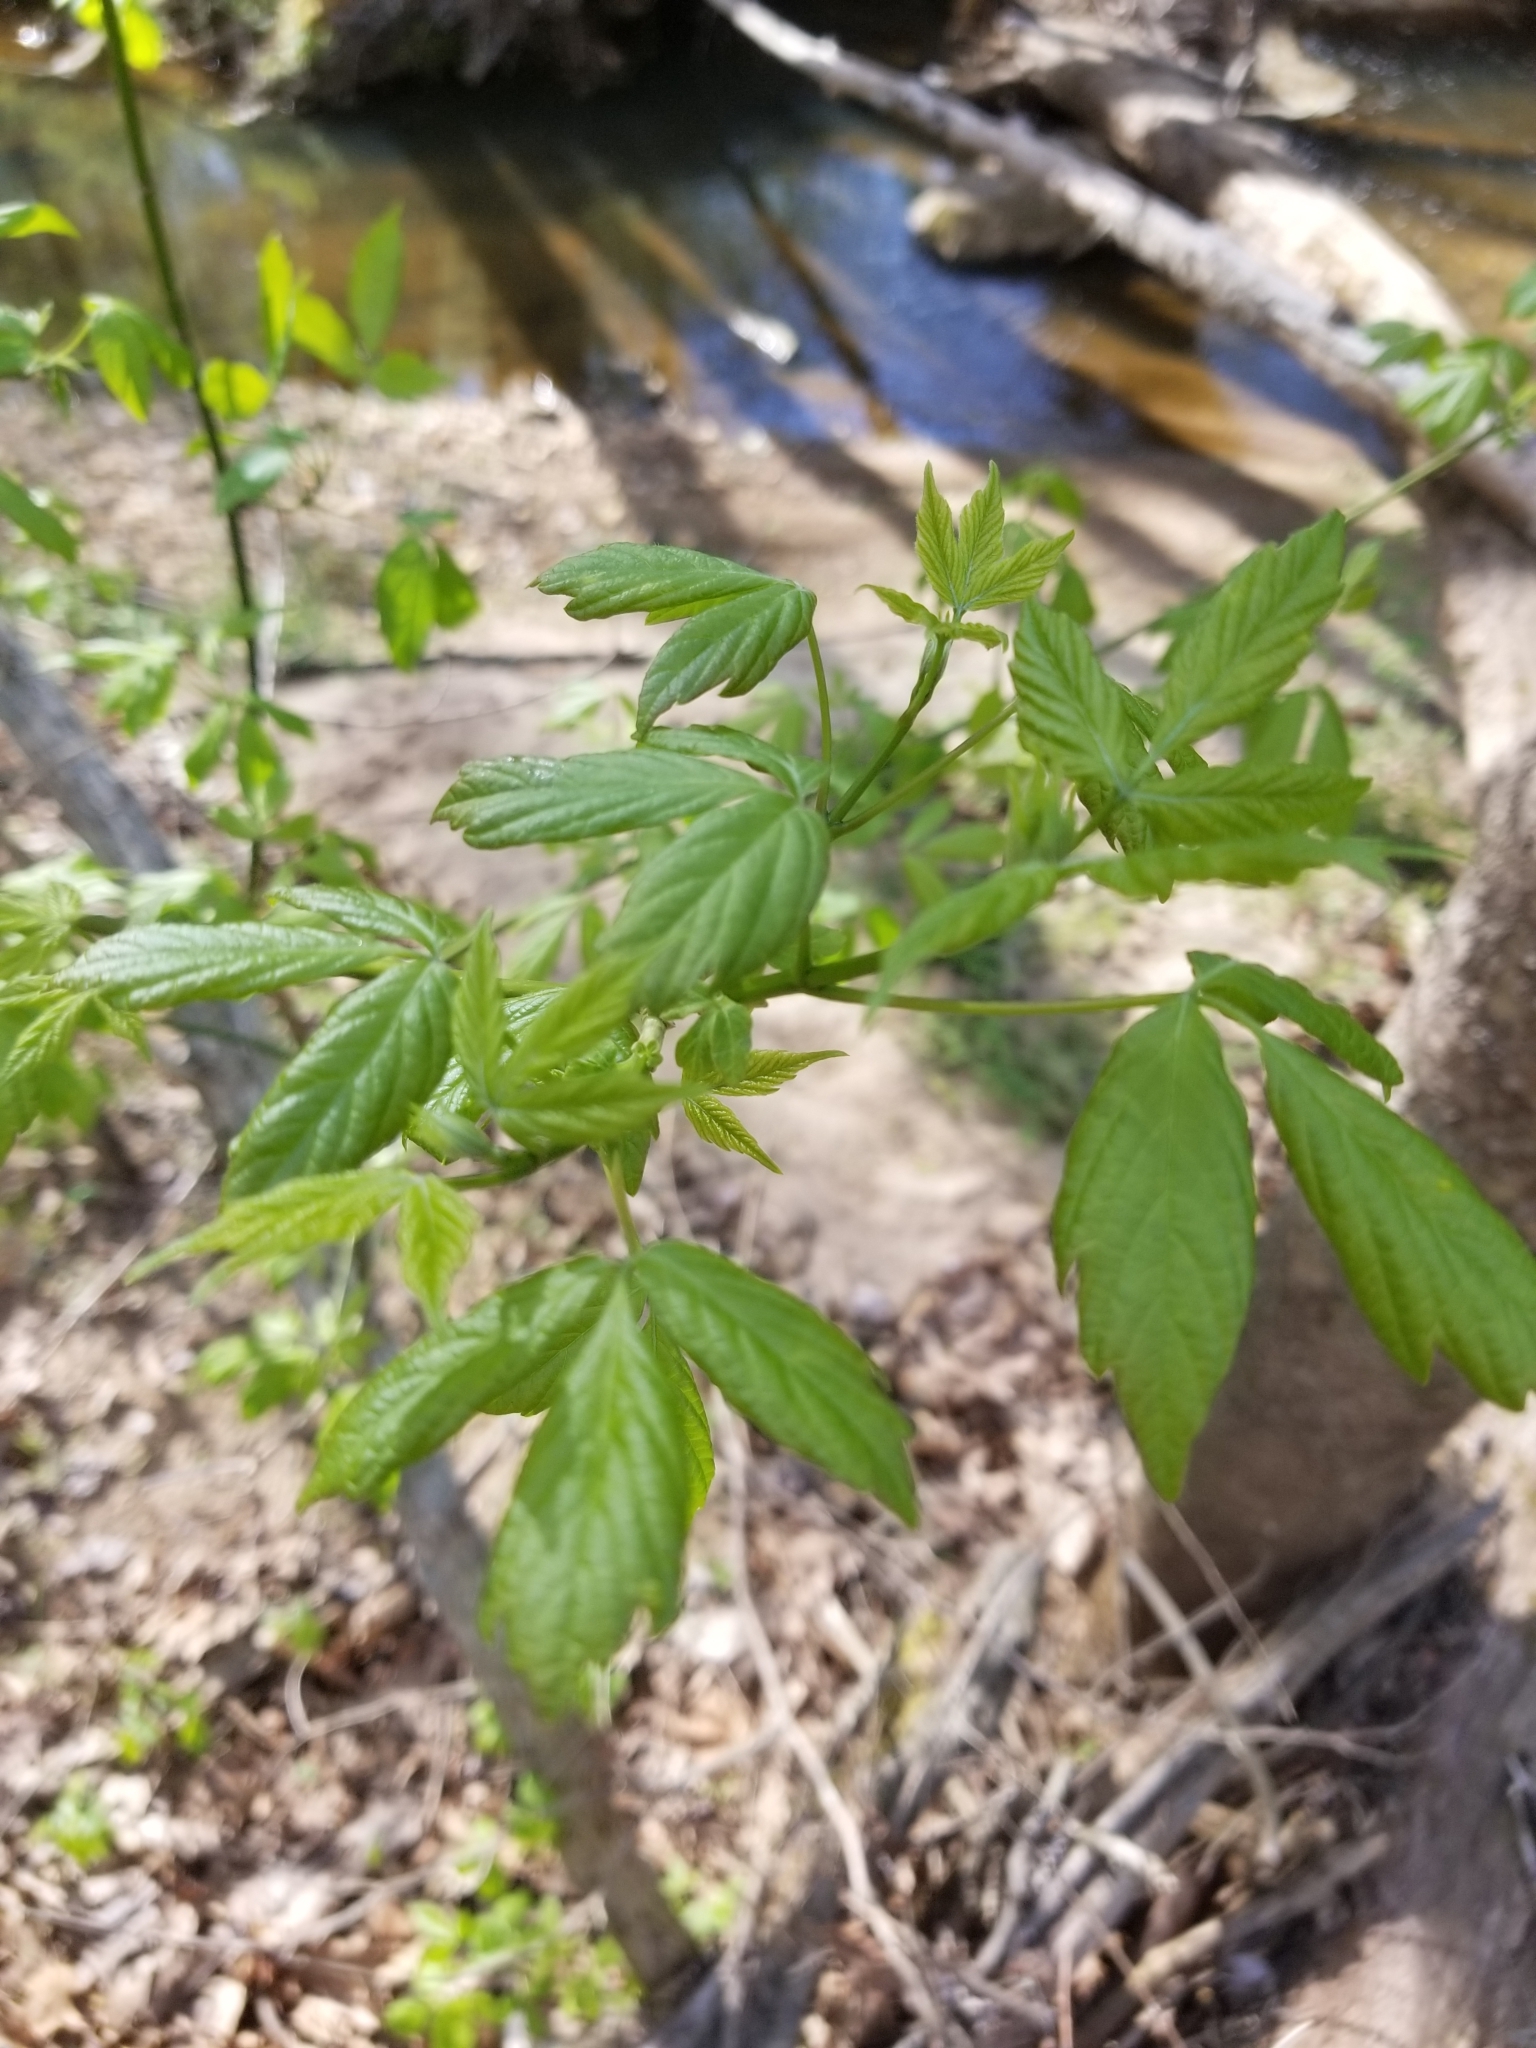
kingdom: Plantae
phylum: Tracheophyta
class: Magnoliopsida
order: Sapindales
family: Sapindaceae
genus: Acer
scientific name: Acer negundo
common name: Ashleaf maple
